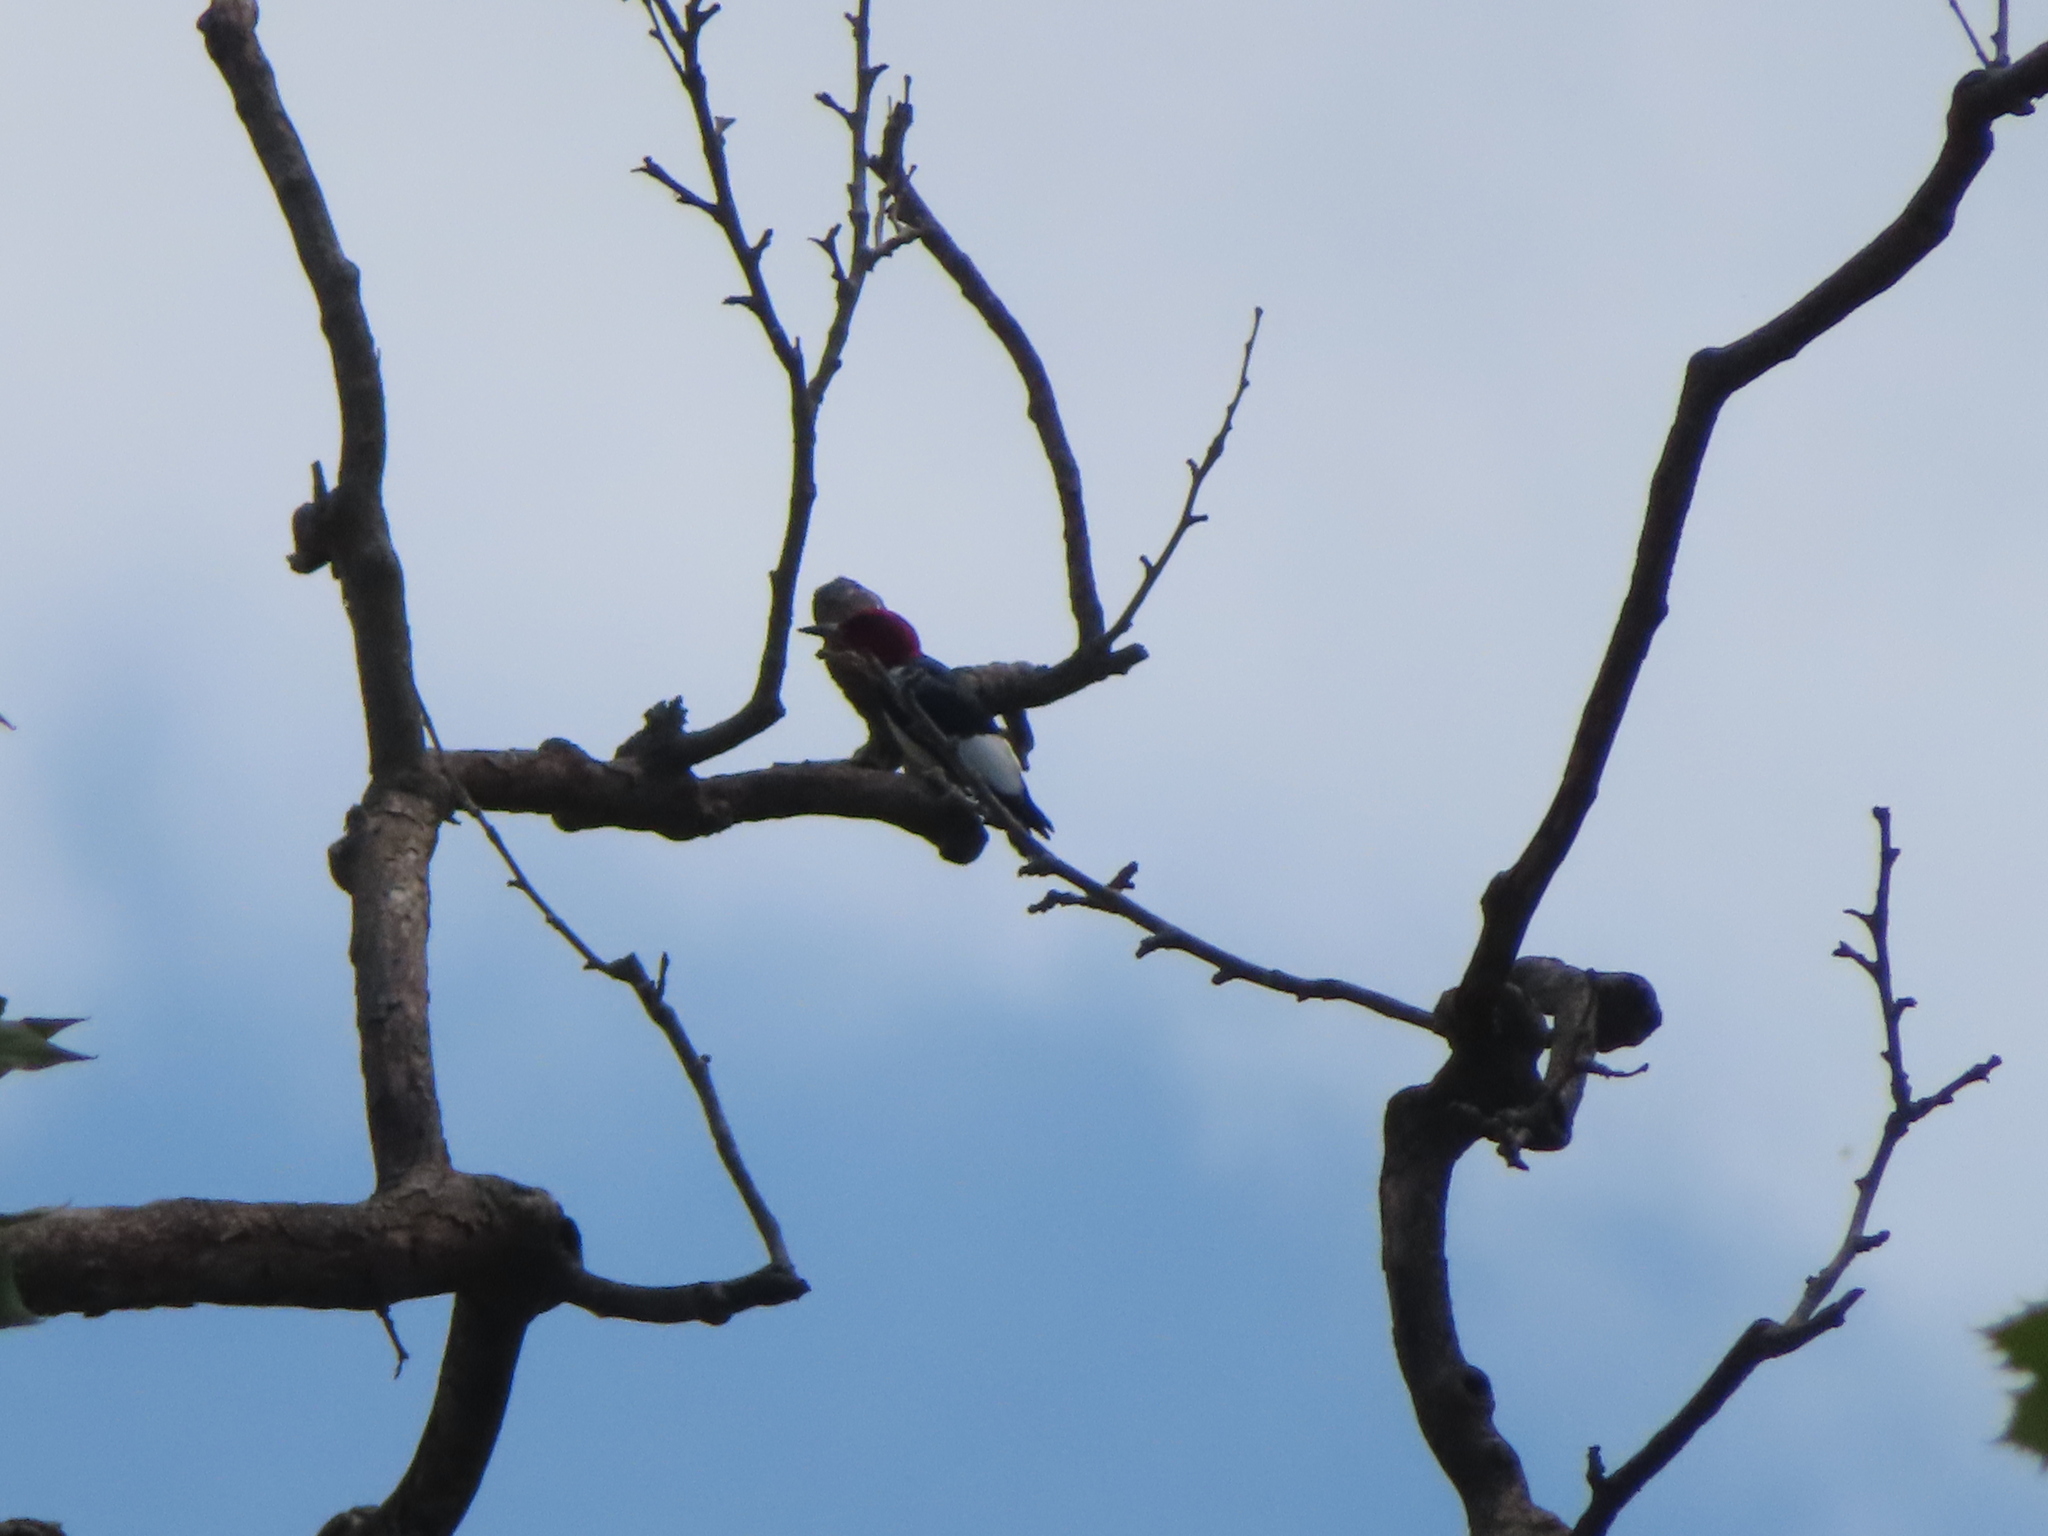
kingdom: Animalia
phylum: Chordata
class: Aves
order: Piciformes
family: Picidae
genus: Melanerpes
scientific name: Melanerpes erythrocephalus
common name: Red-headed woodpecker
